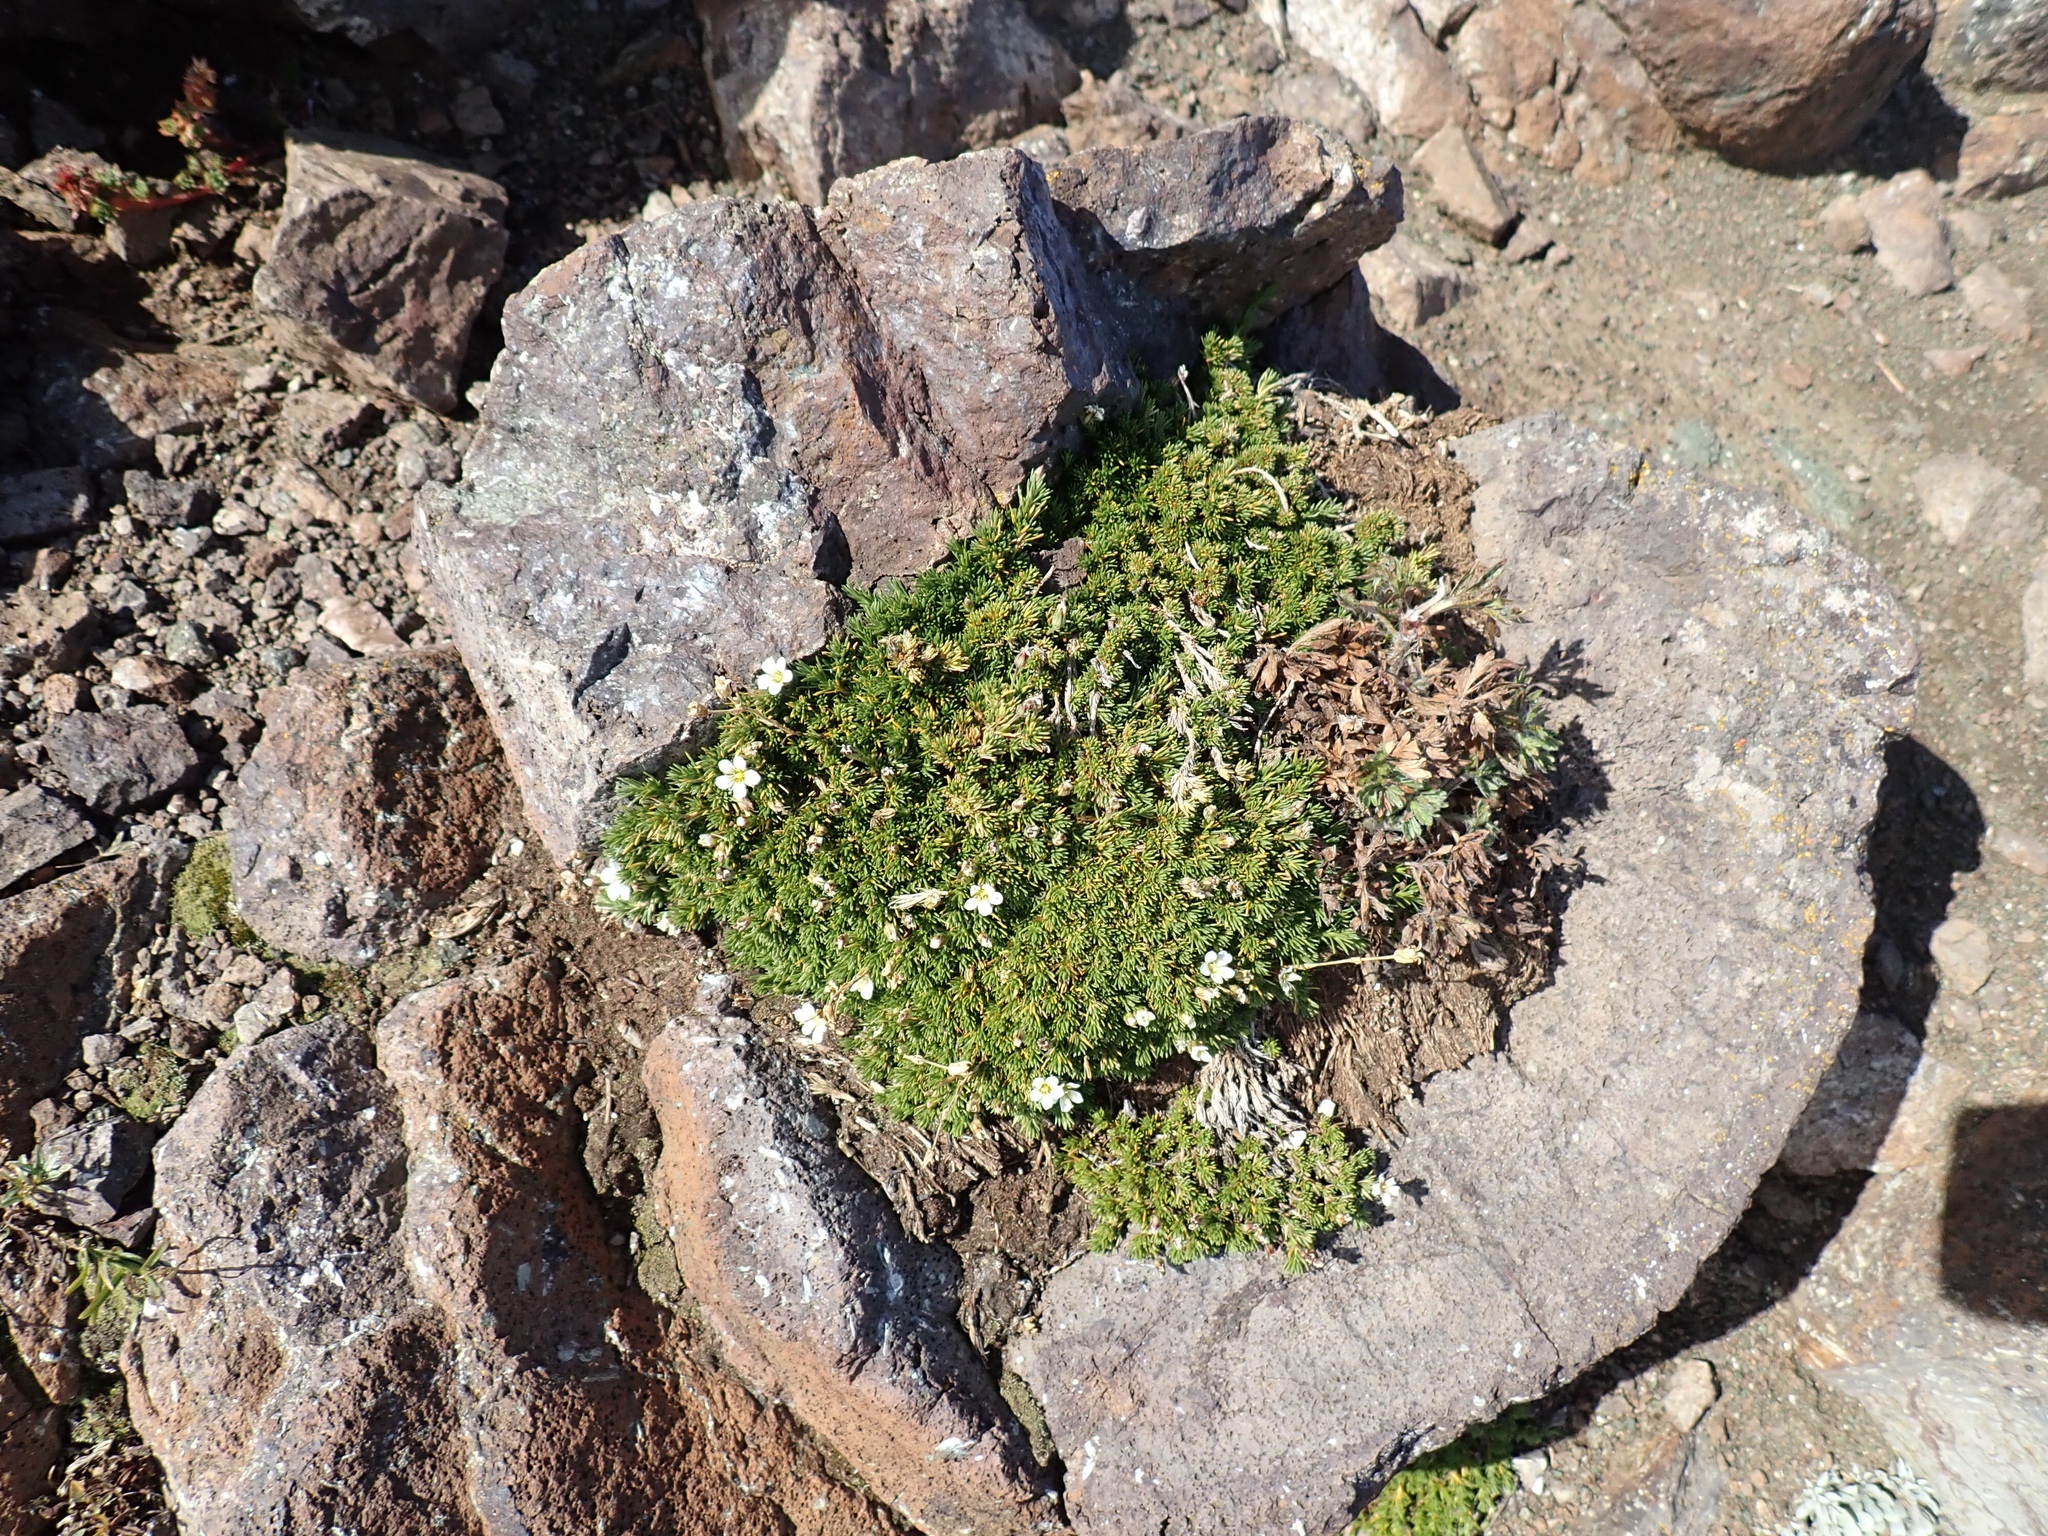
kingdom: Plantae
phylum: Tracheophyta
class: Magnoliopsida
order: Caryophyllales
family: Caryophyllaceae
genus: Cherleria
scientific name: Cherleria obtusiloba
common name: Alpine stitchwort
